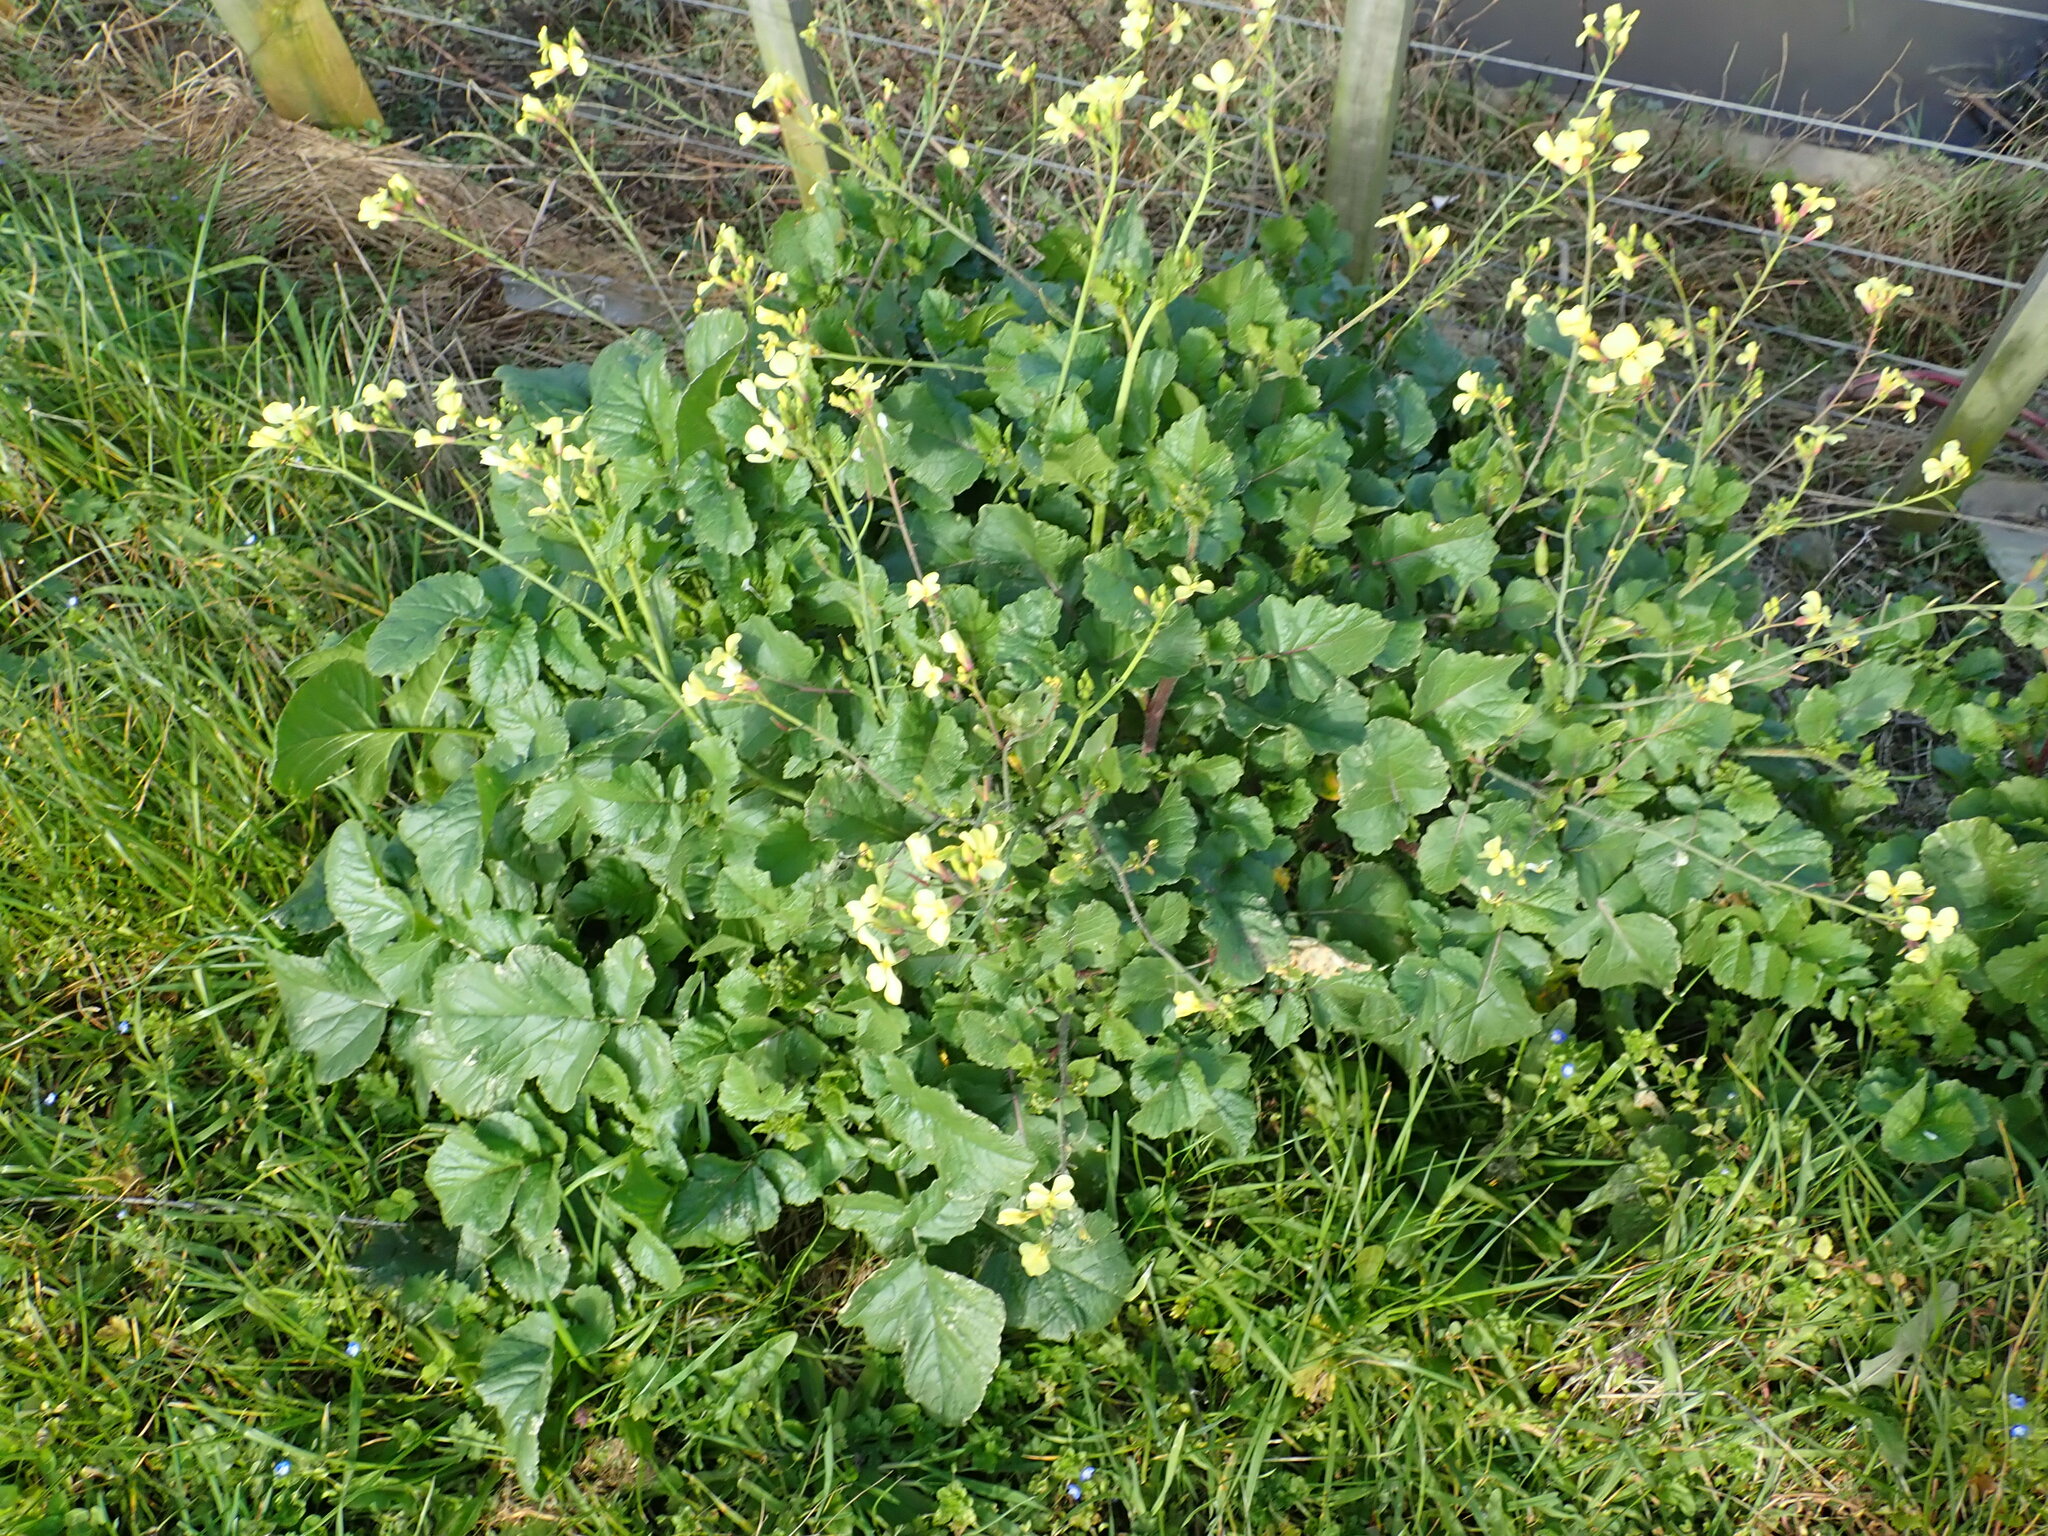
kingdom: Plantae
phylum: Tracheophyta
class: Magnoliopsida
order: Brassicales
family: Brassicaceae
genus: Raphanus
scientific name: Raphanus raphanistrum
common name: Wild radish
